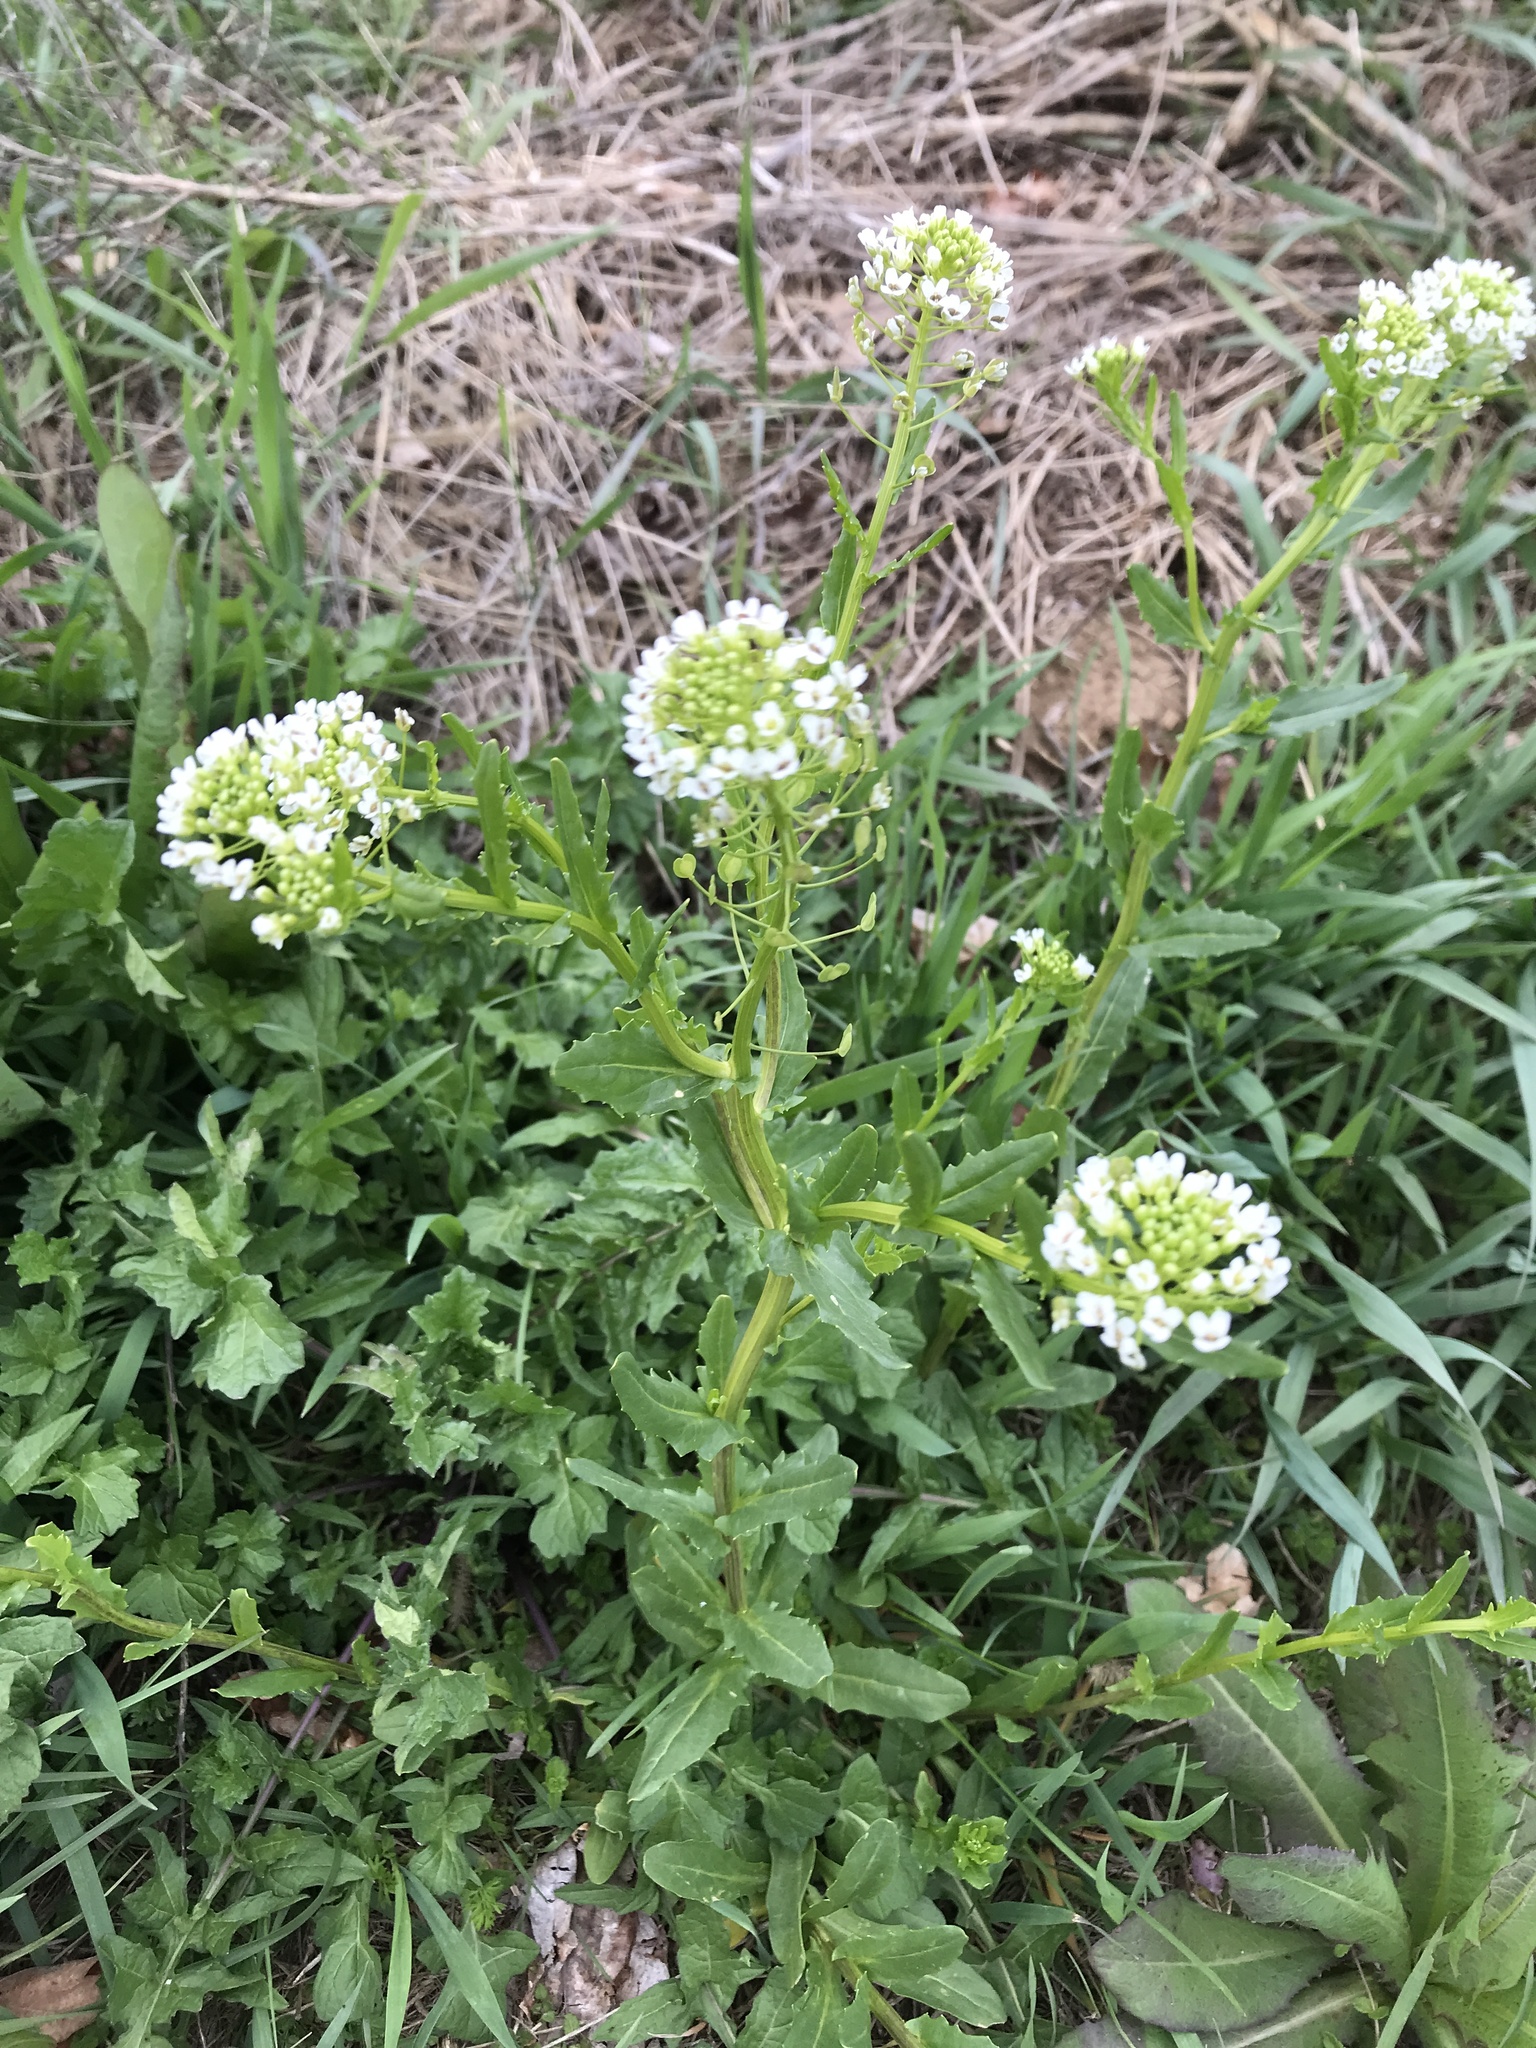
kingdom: Plantae
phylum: Tracheophyta
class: Magnoliopsida
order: Brassicales
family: Brassicaceae
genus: Thlaspi
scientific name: Thlaspi arvense
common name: Field pennycress
